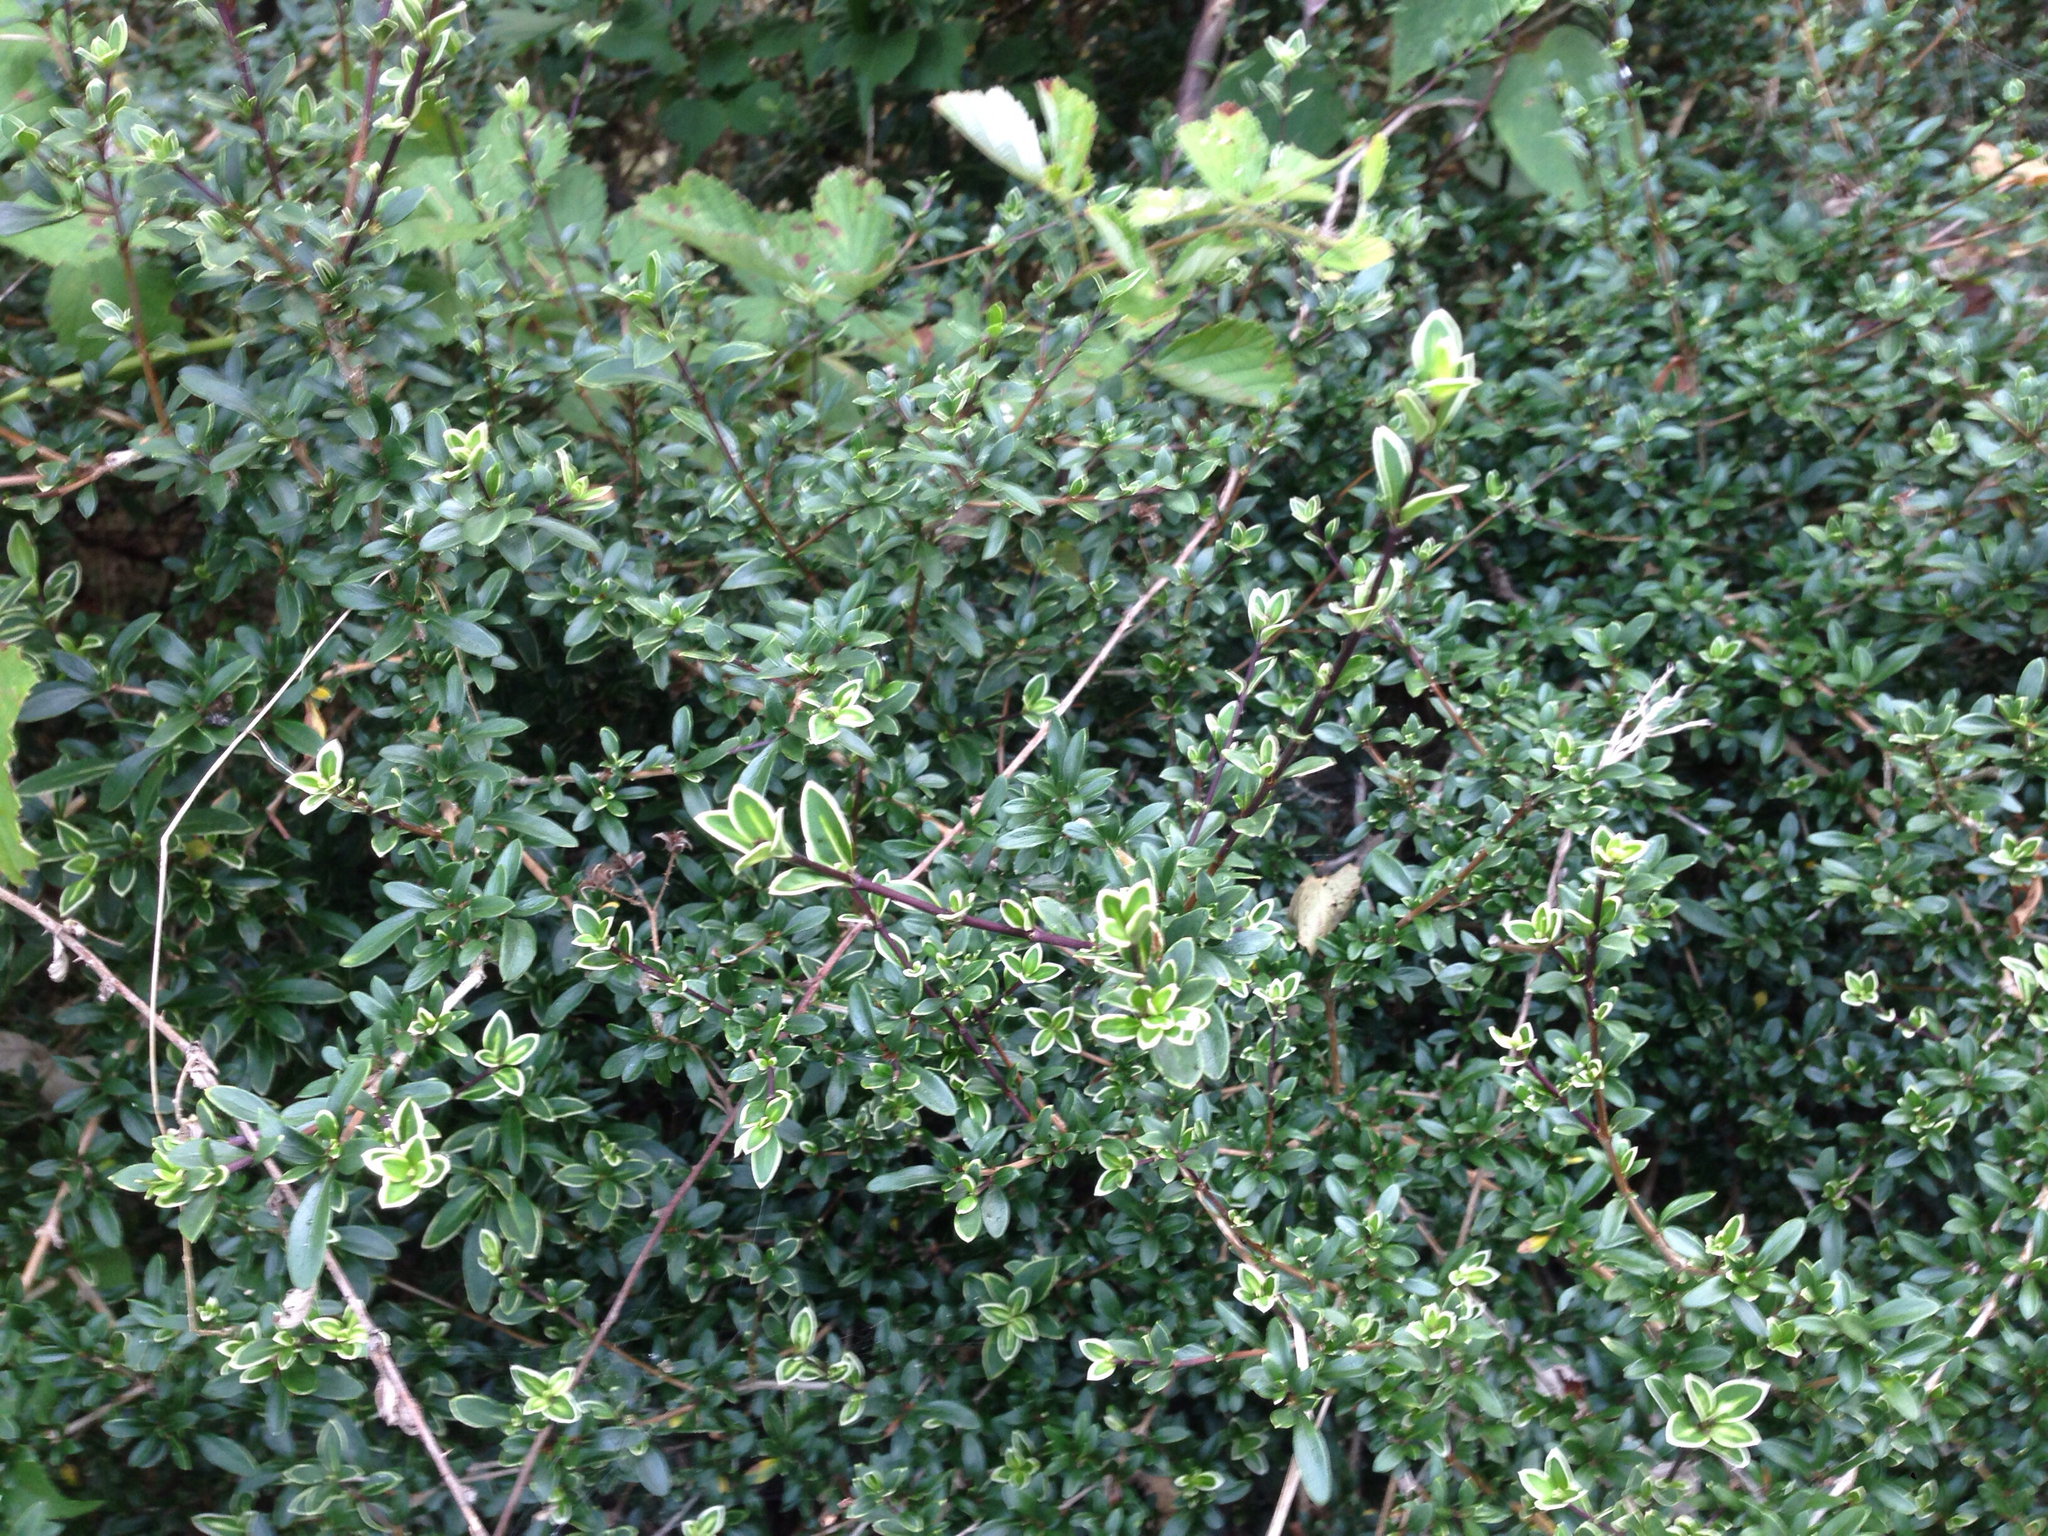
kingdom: Plantae
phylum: Tracheophyta
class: Magnoliopsida
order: Gentianales
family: Rubiaceae
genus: Buchozia
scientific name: Buchozia japonica
